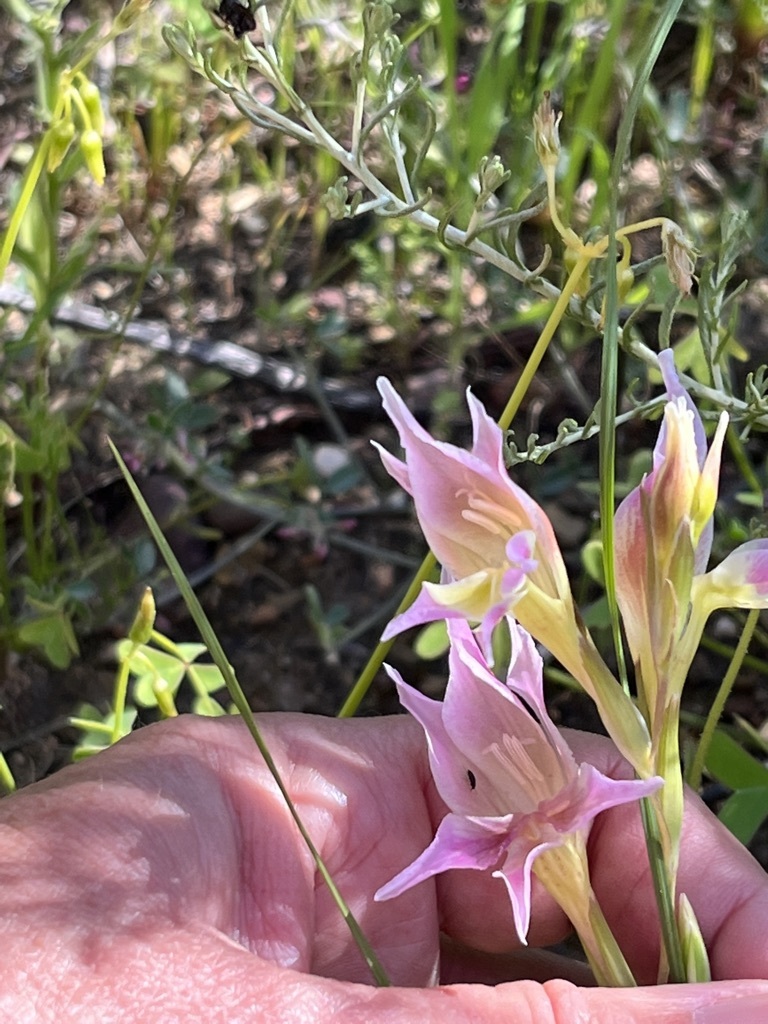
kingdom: Plantae
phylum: Tracheophyta
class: Liliopsida
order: Asparagales
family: Iridaceae
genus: Gladiolus
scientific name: Gladiolus venustus
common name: Purple kalkoentjie
